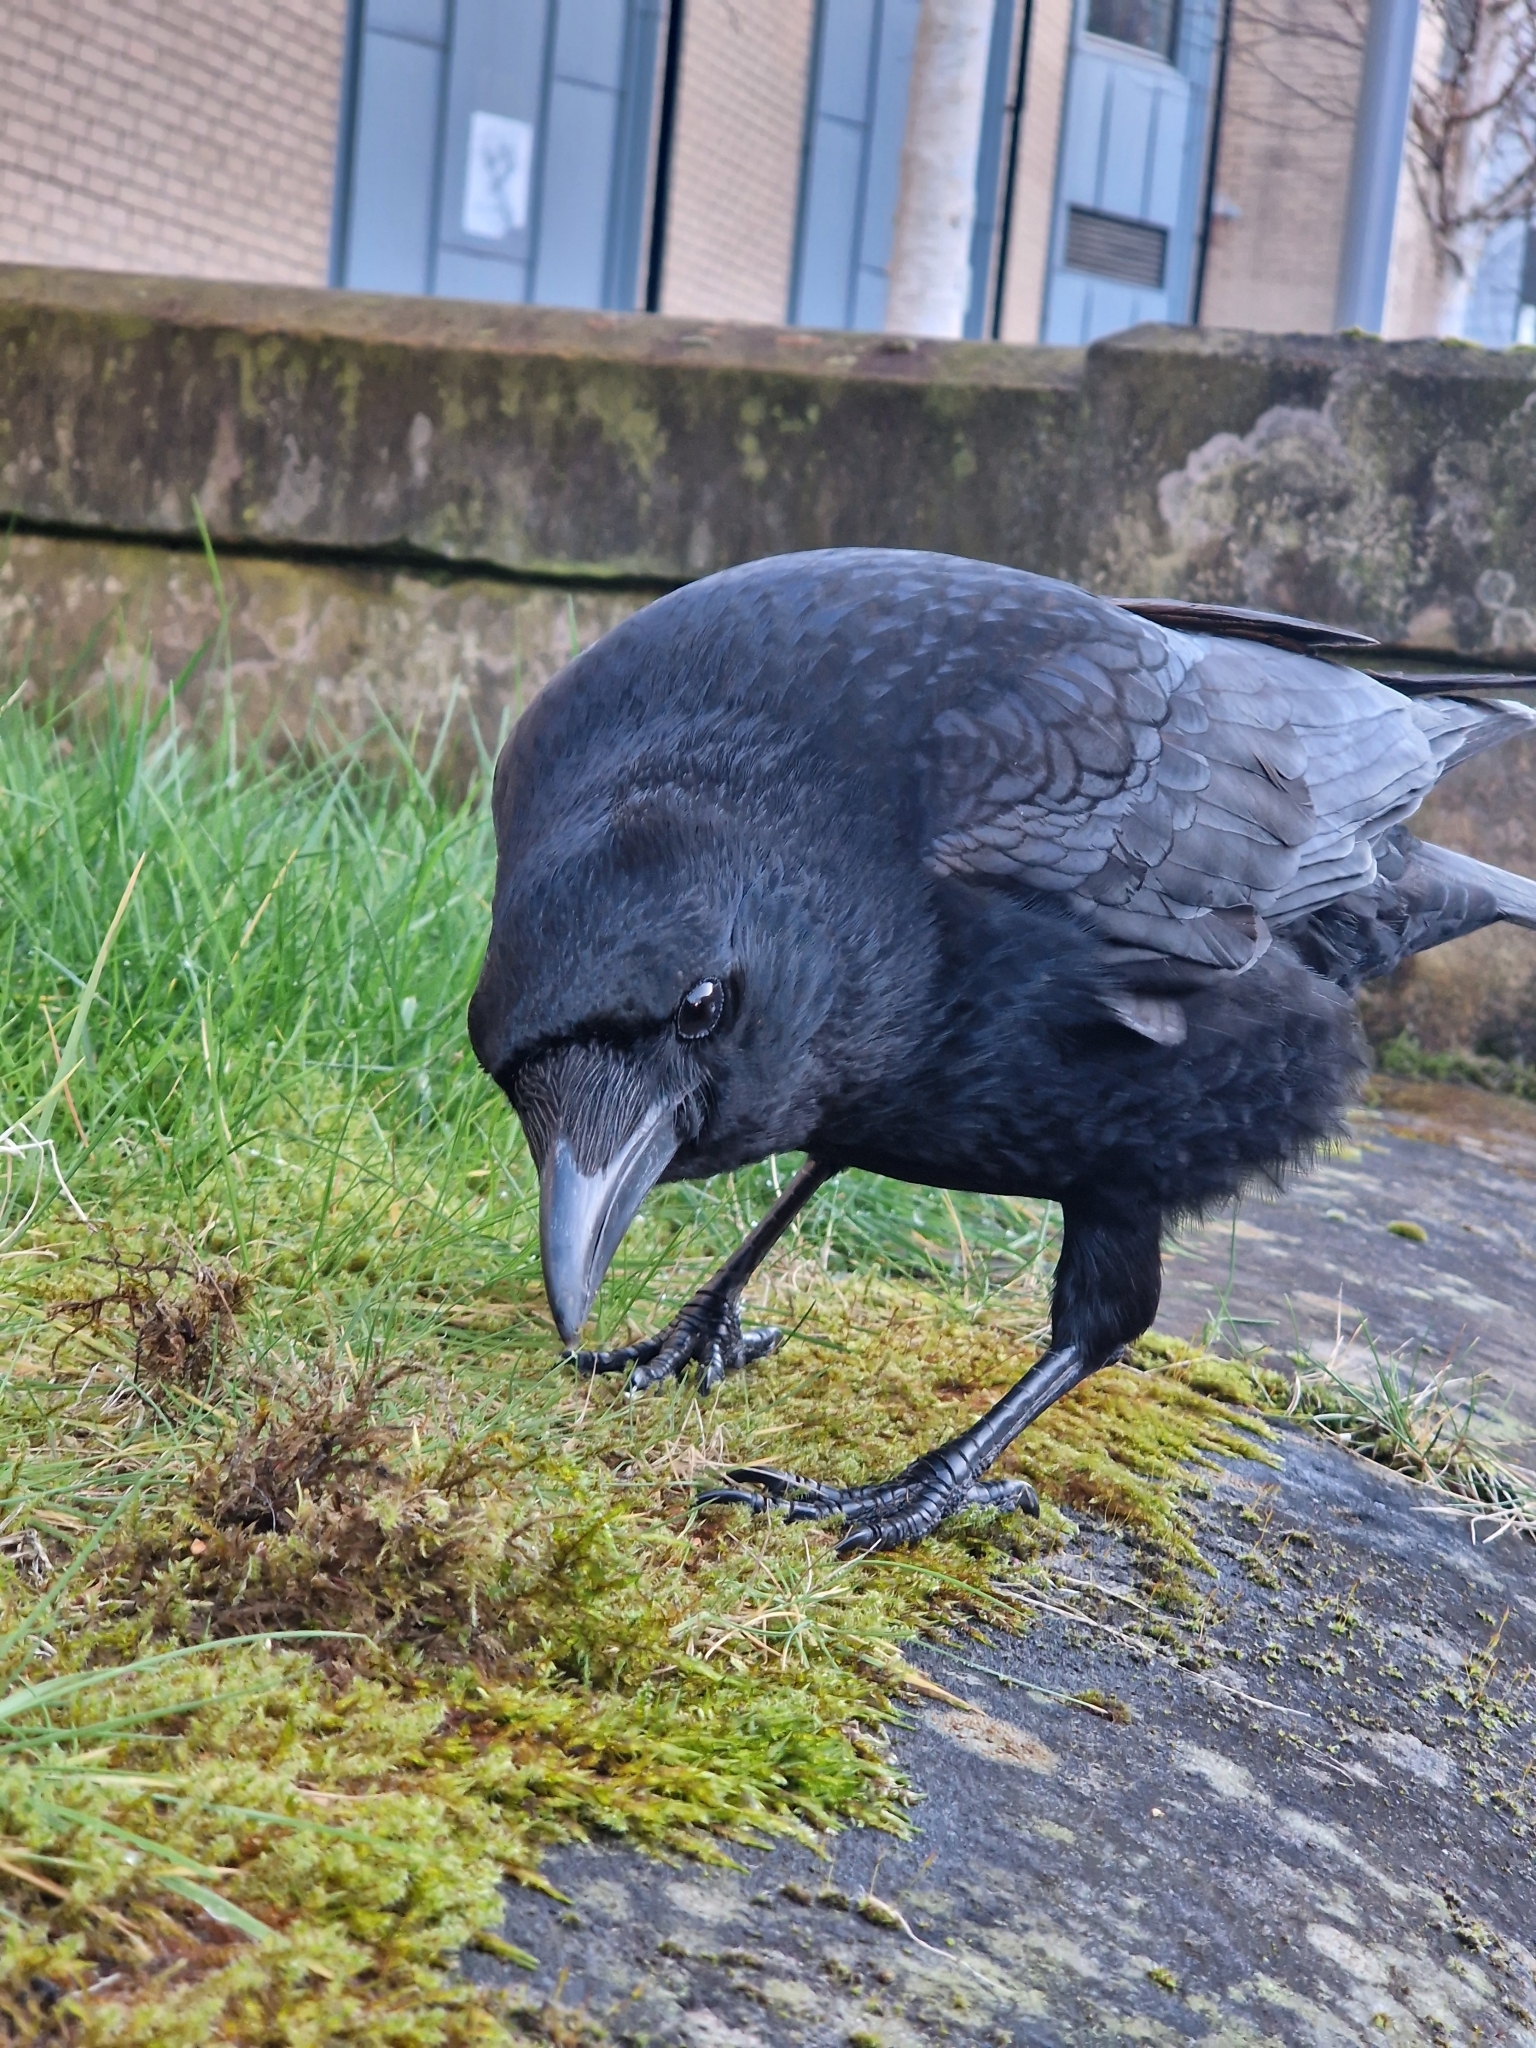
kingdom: Animalia
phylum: Chordata
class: Aves
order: Passeriformes
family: Corvidae
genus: Corvus
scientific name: Corvus corax
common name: Common raven
